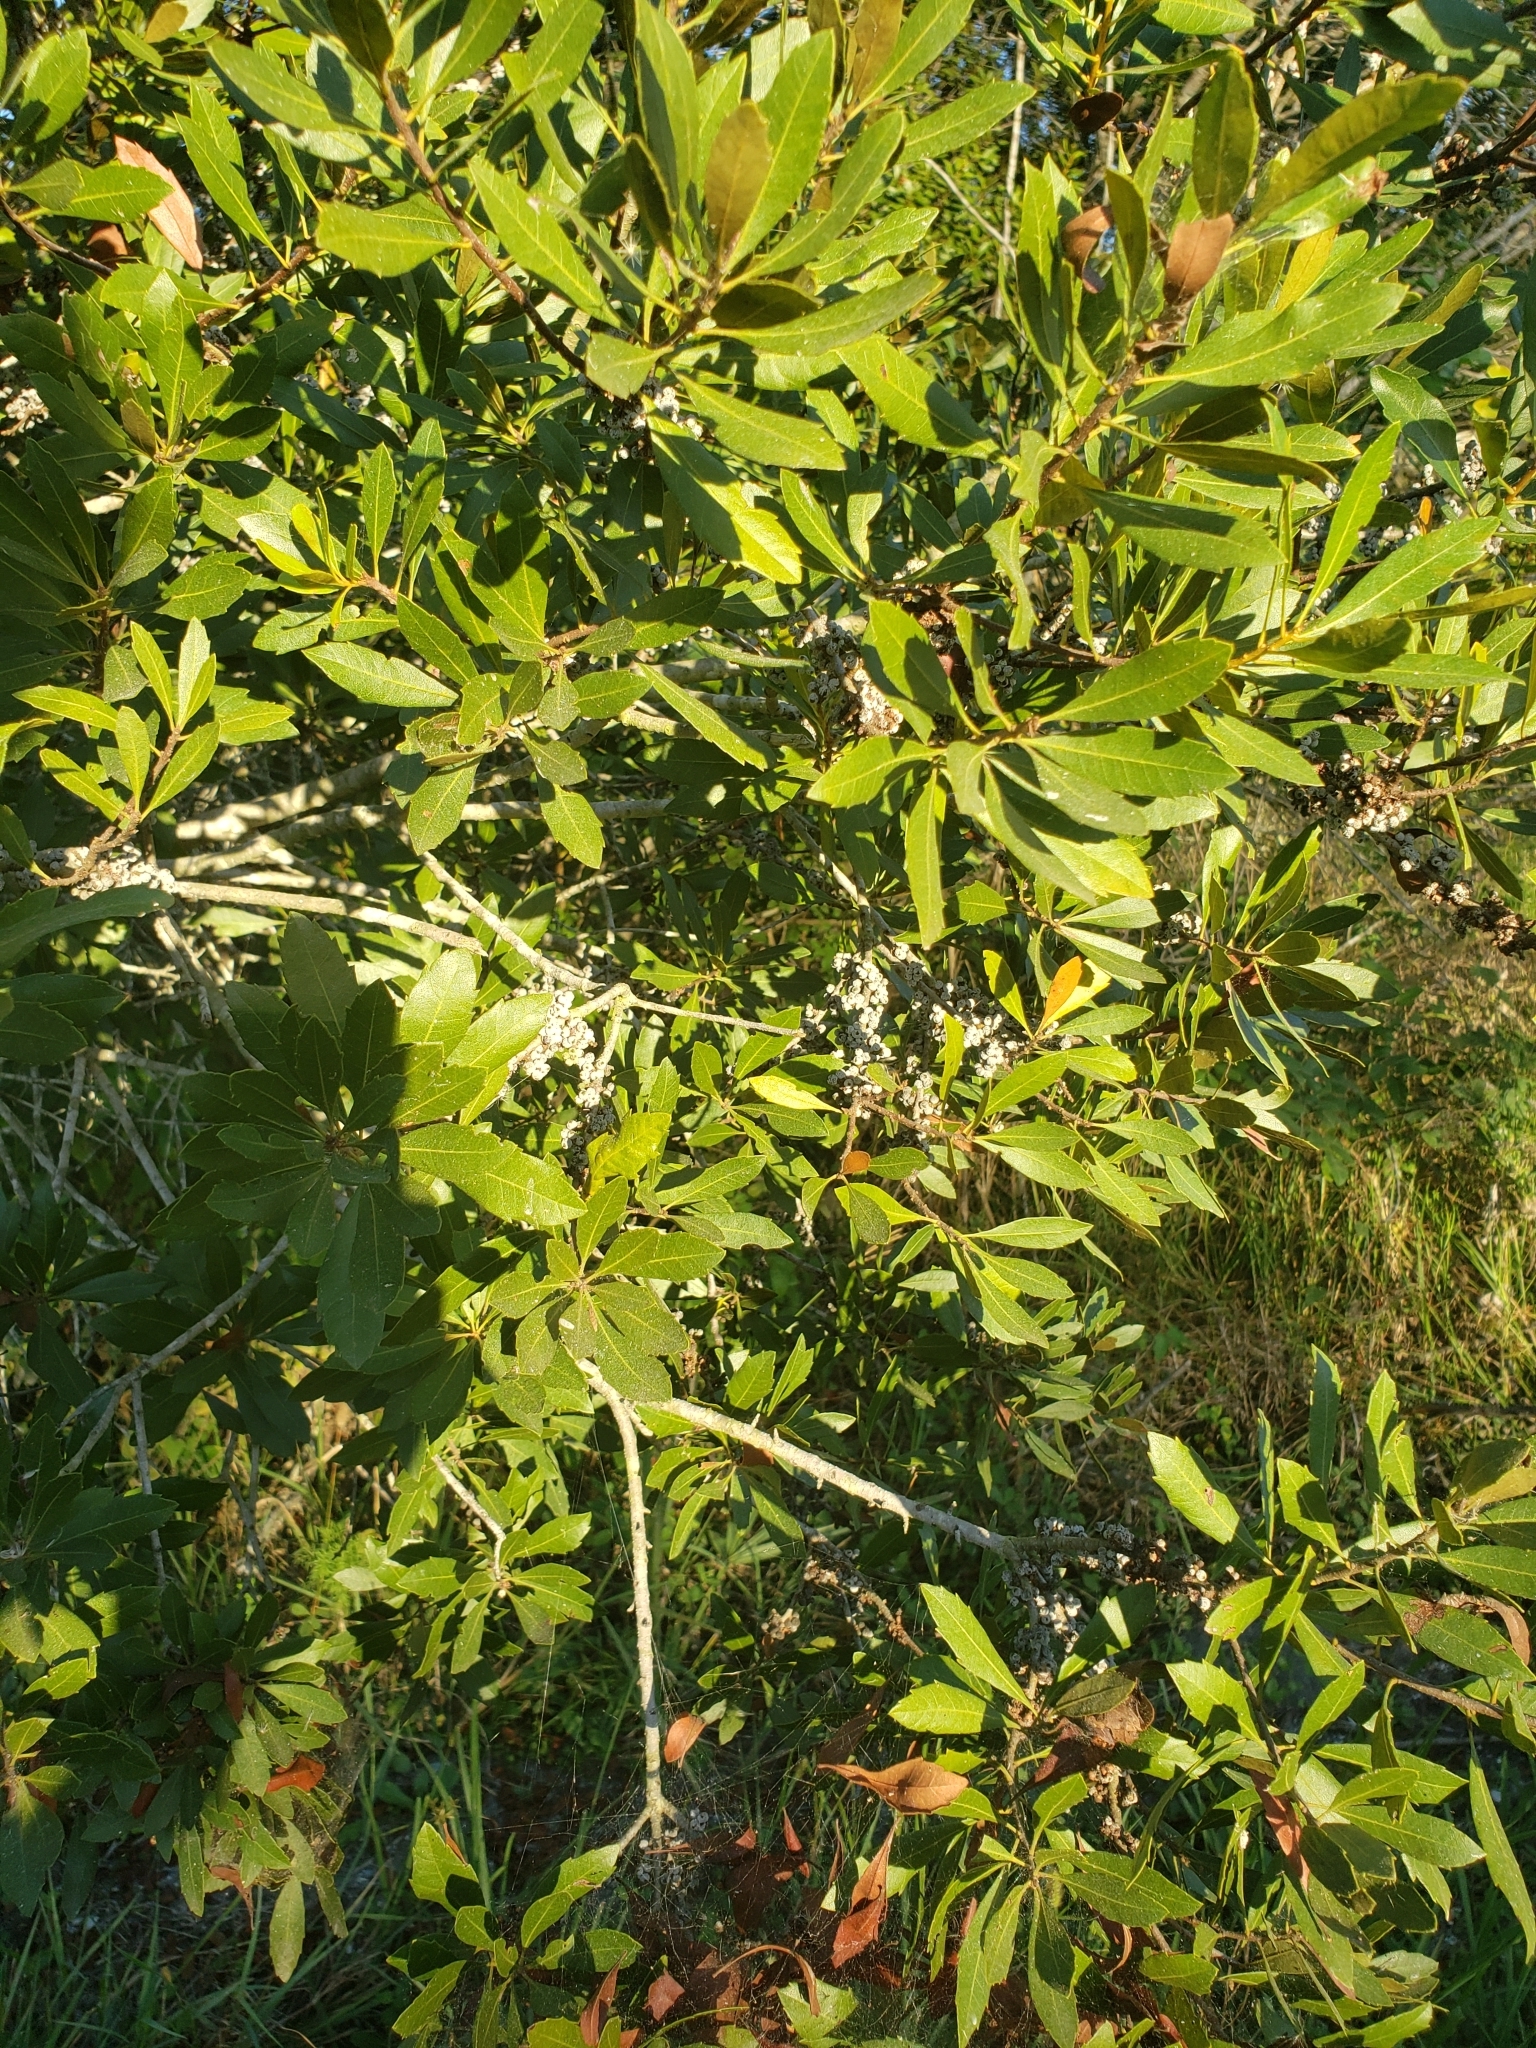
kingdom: Plantae
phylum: Tracheophyta
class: Magnoliopsida
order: Fagales
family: Myricaceae
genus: Morella
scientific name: Morella cerifera
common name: Wax myrtle
